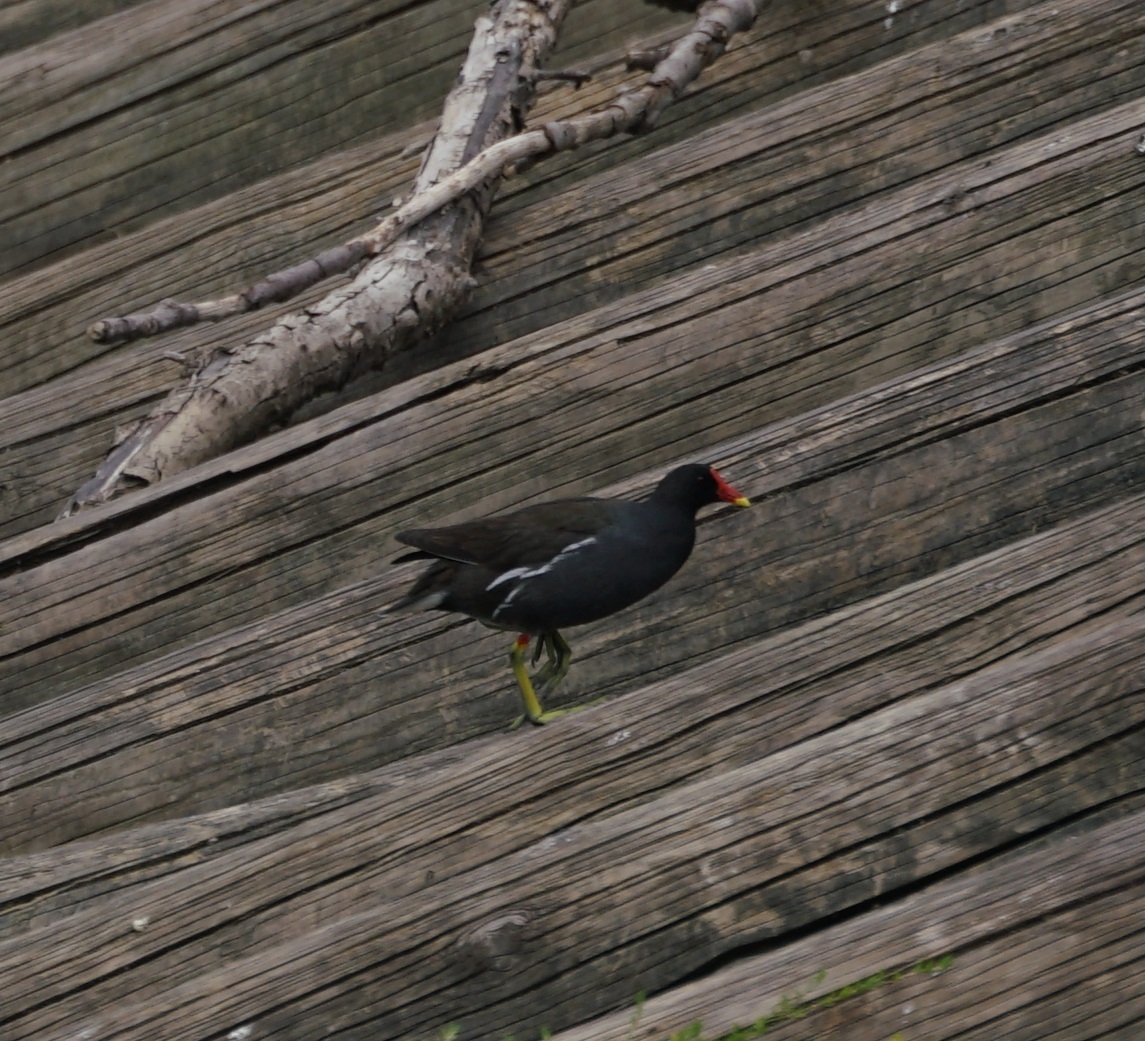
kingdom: Animalia
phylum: Chordata
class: Aves
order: Gruiformes
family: Rallidae
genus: Gallinula
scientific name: Gallinula chloropus
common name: Common moorhen
